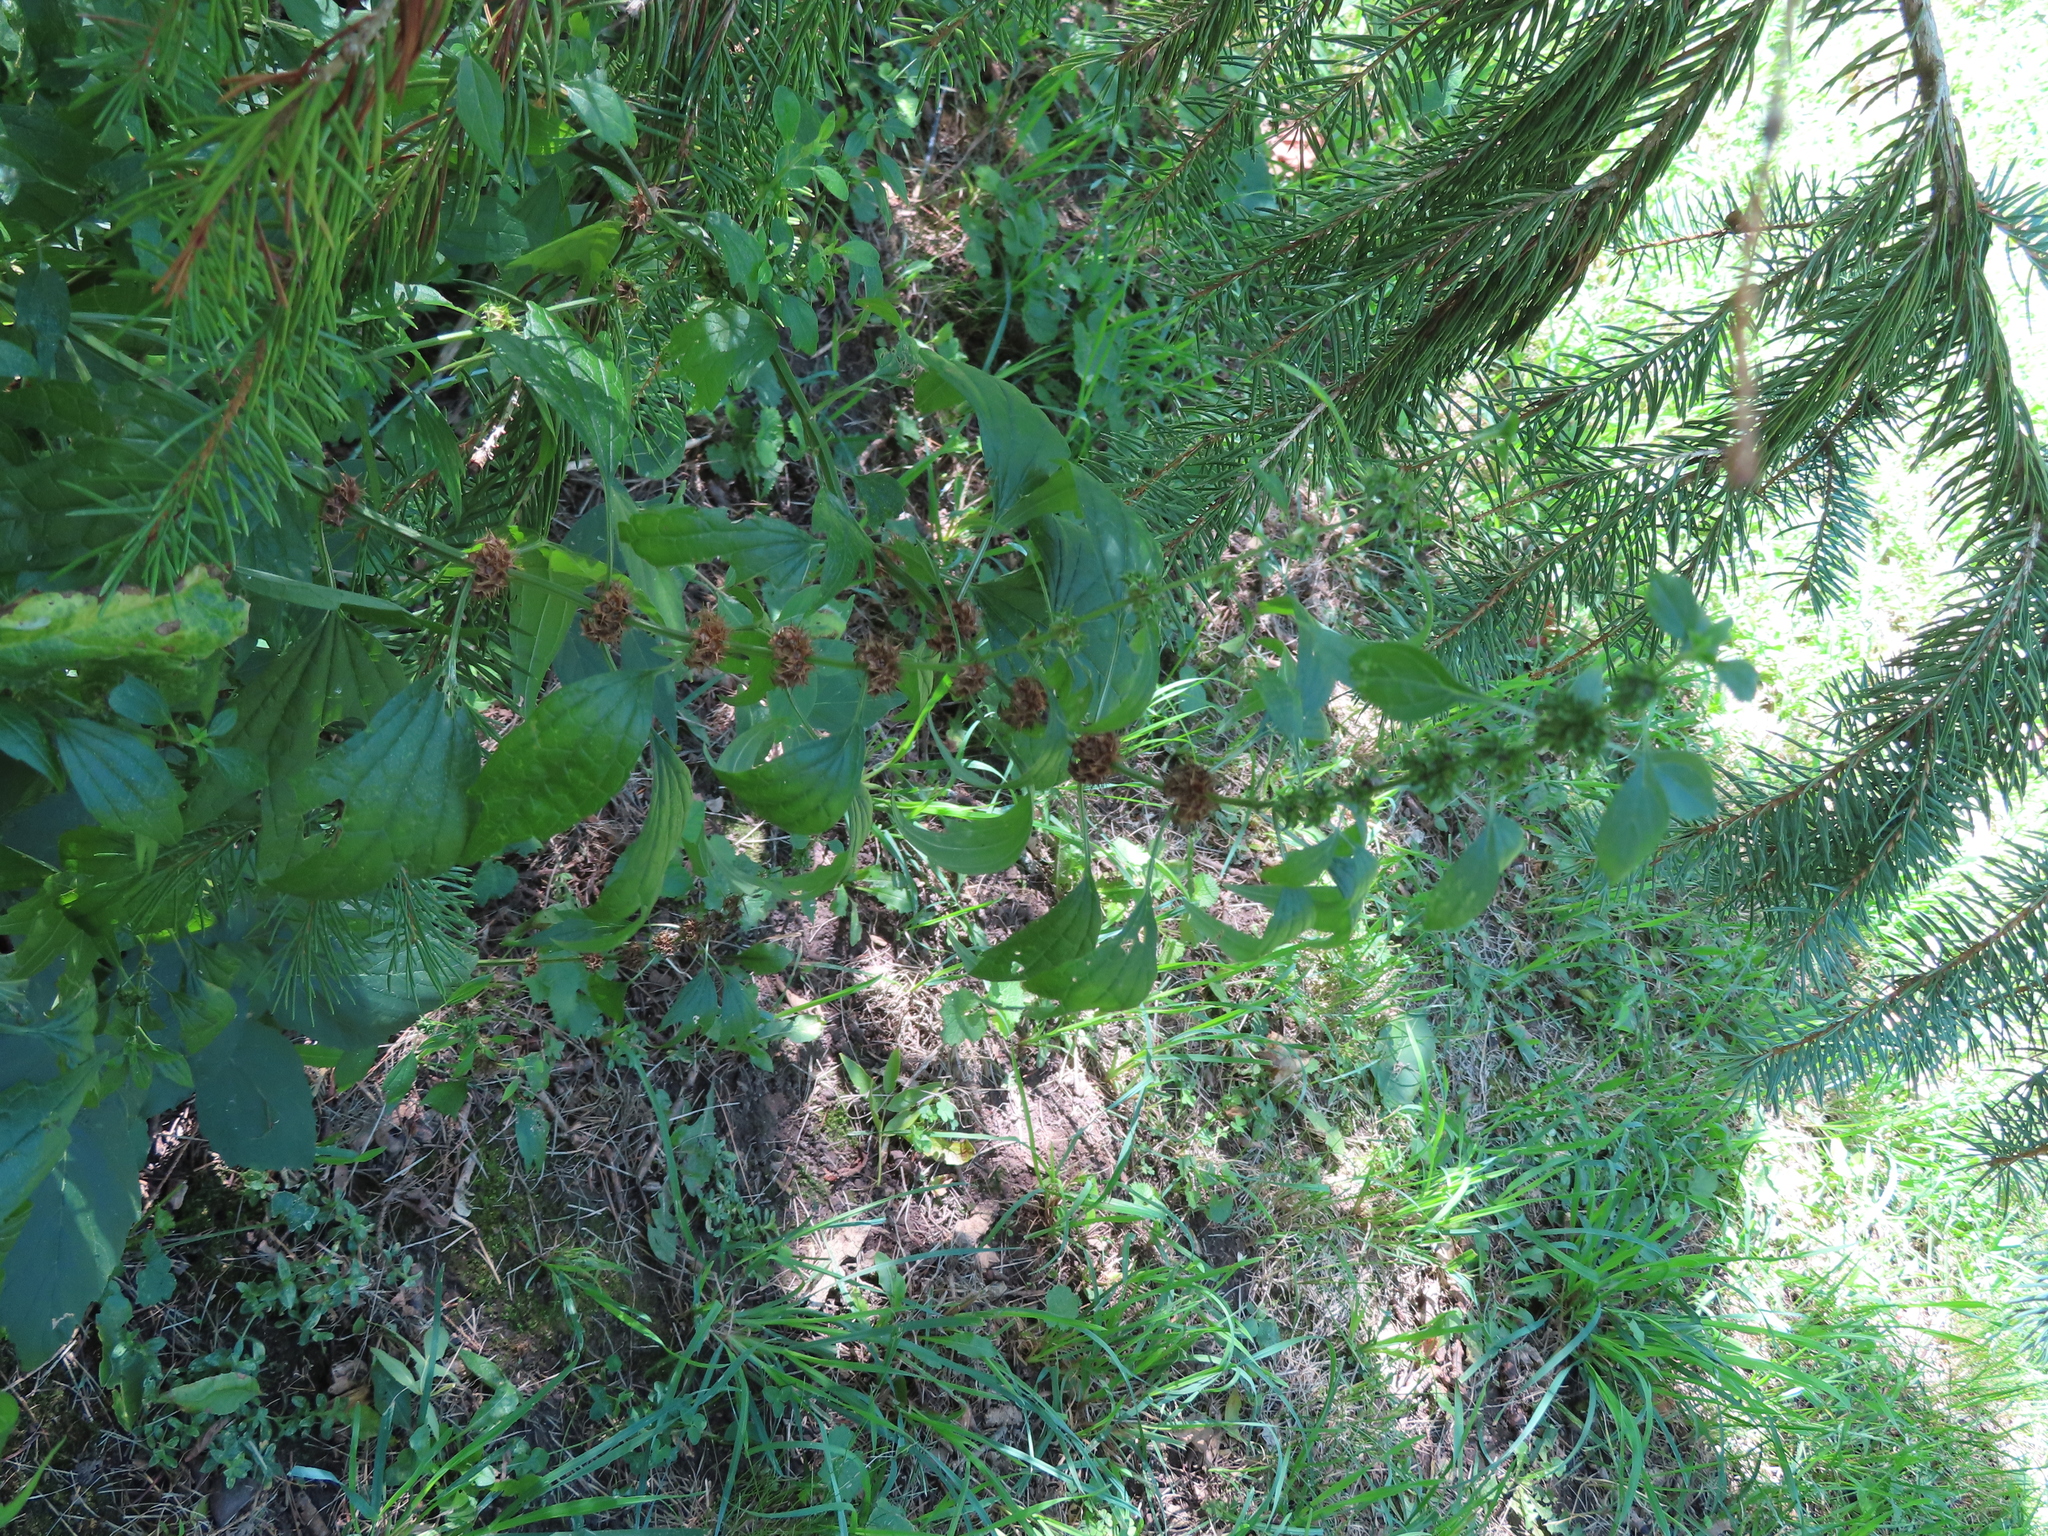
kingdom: Plantae
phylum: Tracheophyta
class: Magnoliopsida
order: Lamiales
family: Lamiaceae
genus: Leonurus
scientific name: Leonurus cardiaca
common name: Motherwort
